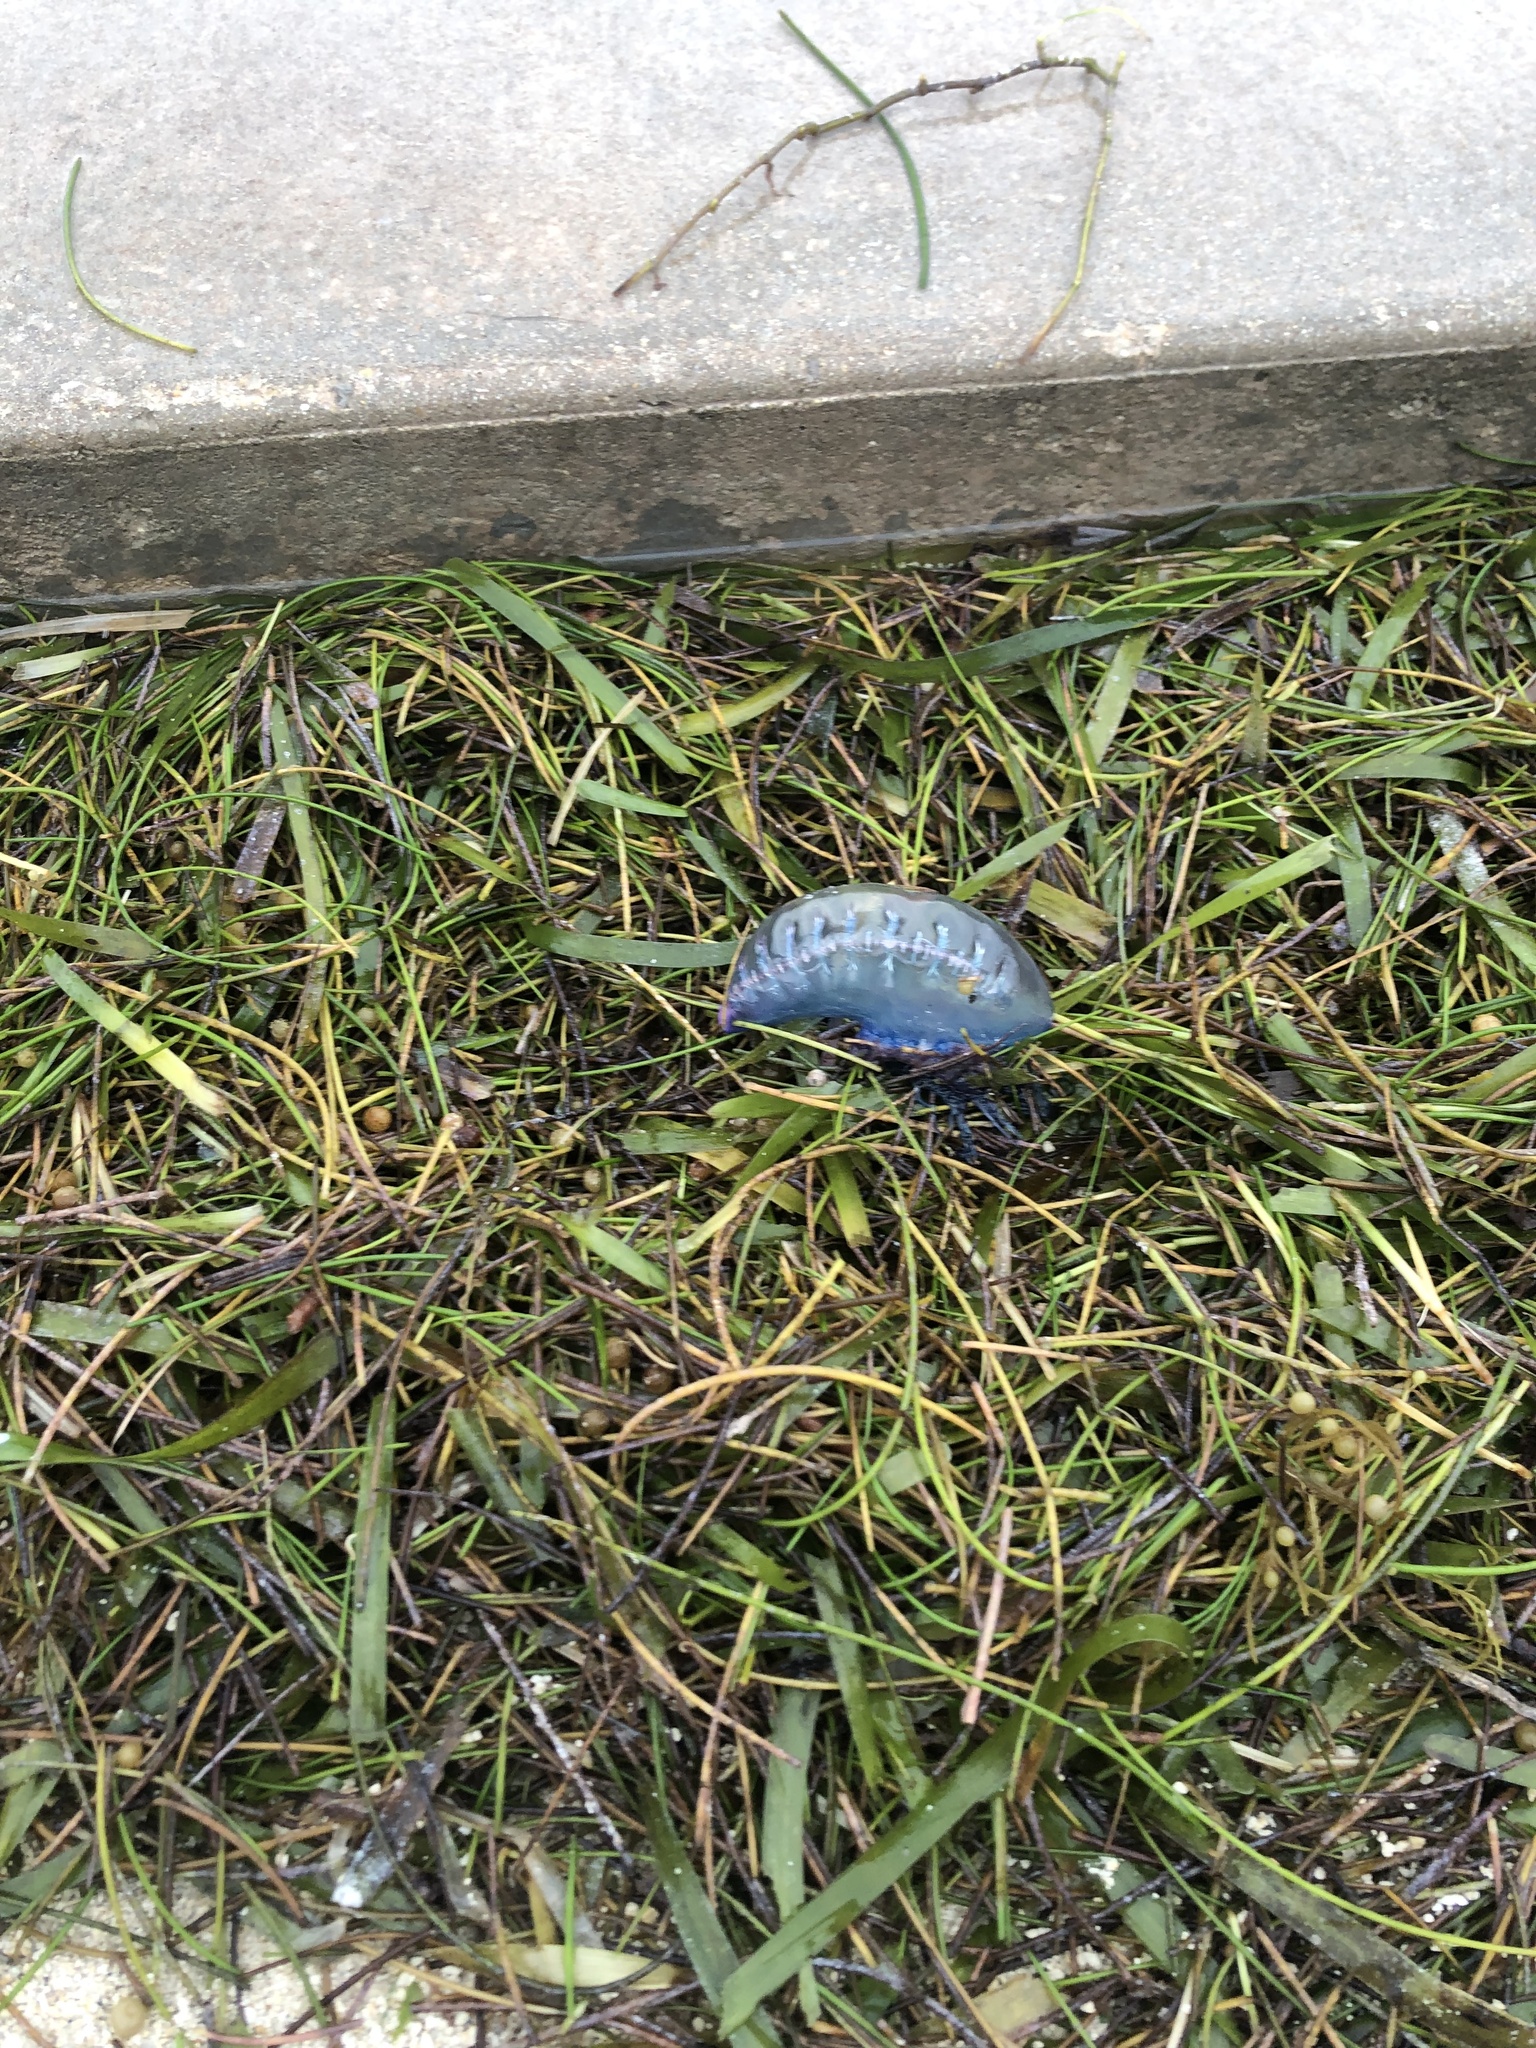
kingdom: Animalia
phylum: Cnidaria
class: Hydrozoa
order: Siphonophorae
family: Physaliidae
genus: Physalia
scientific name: Physalia physalis
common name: Portuguese man-of-war
